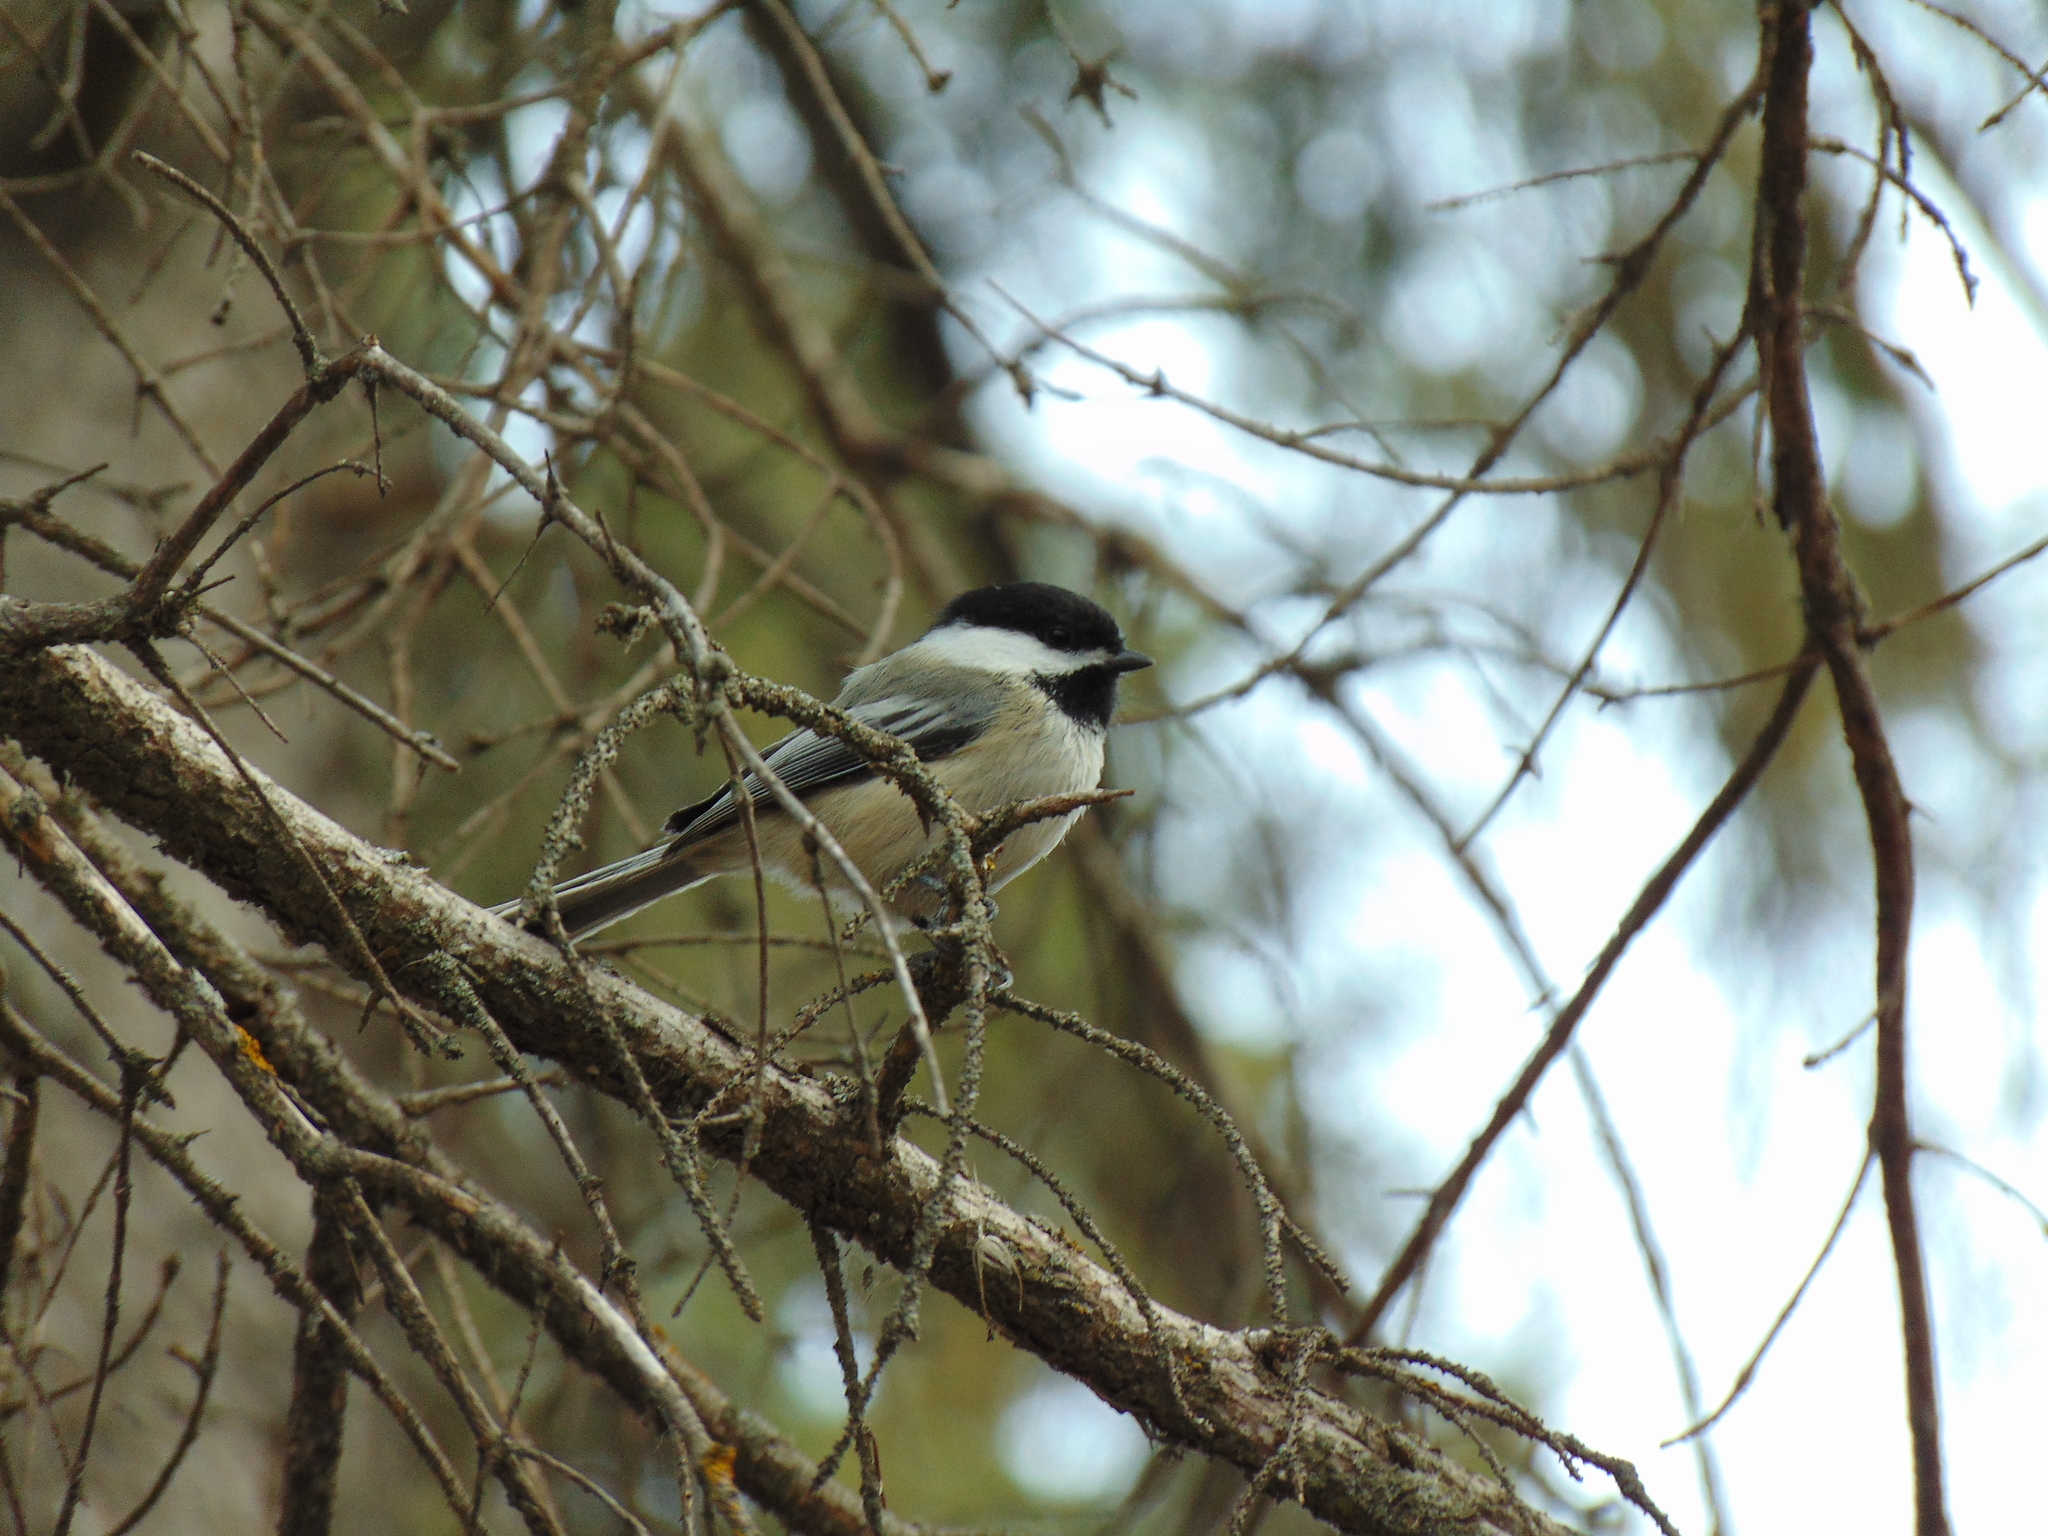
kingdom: Animalia
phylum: Chordata
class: Aves
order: Passeriformes
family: Paridae
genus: Poecile
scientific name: Poecile atricapillus
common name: Black-capped chickadee
